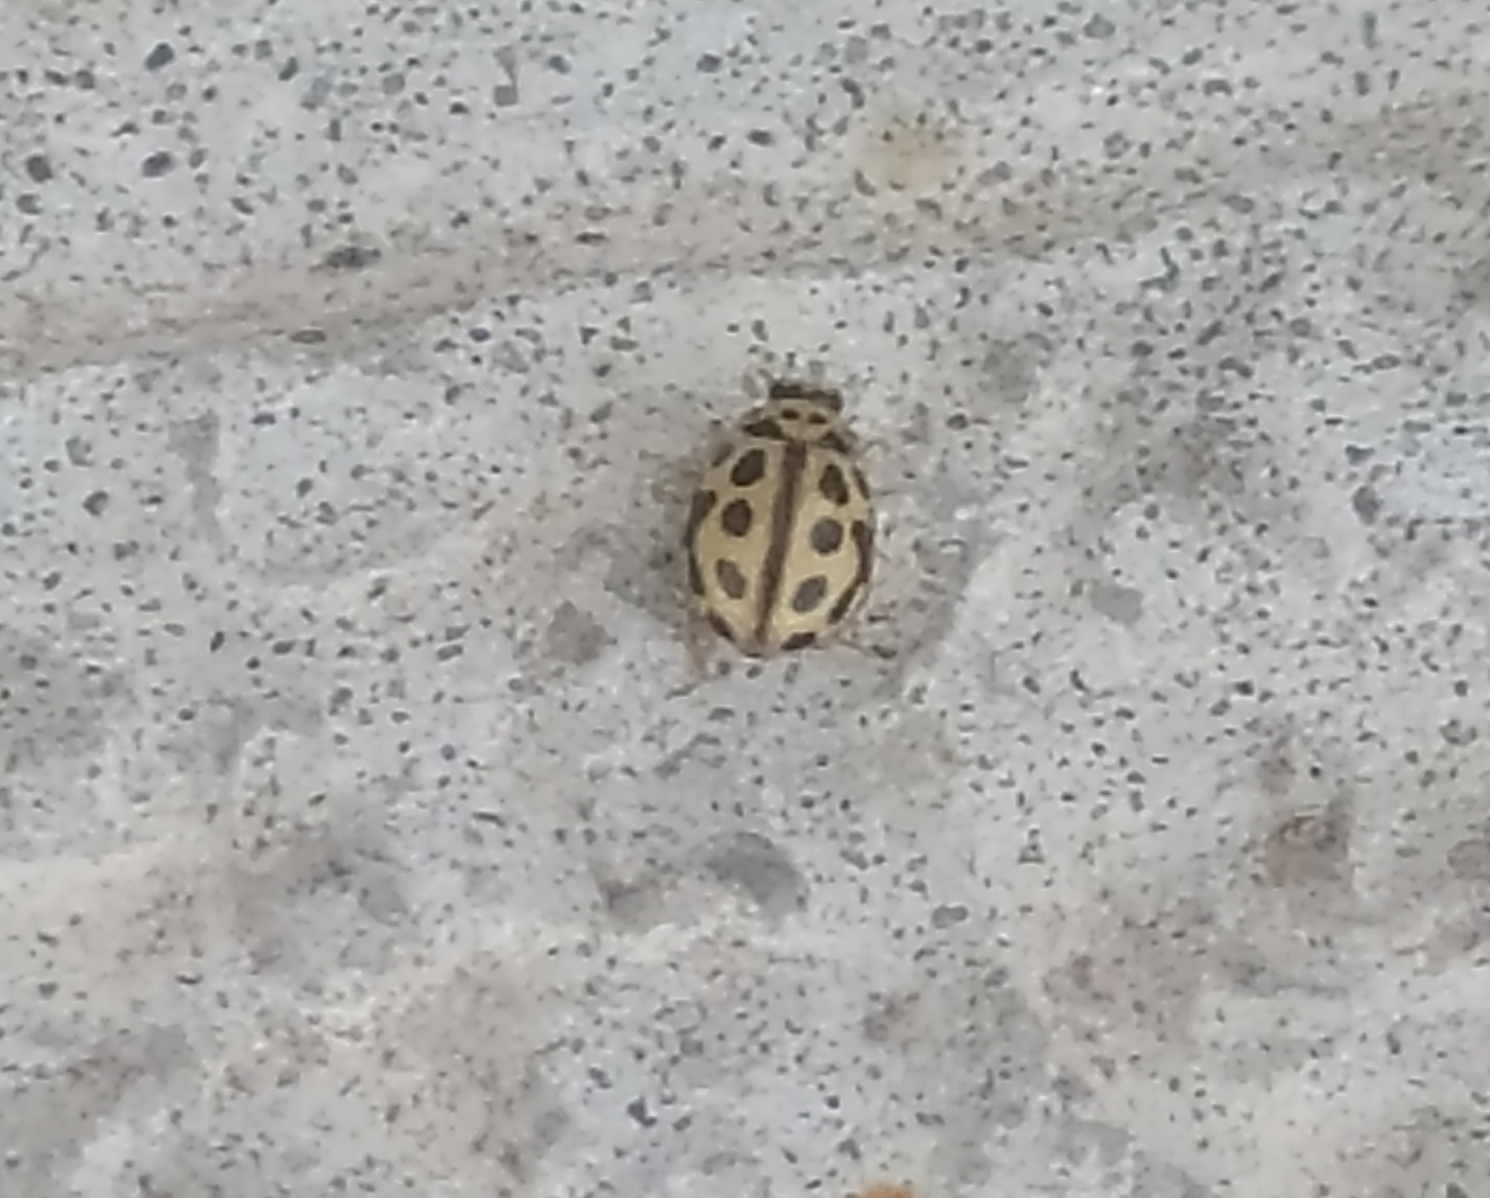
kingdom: Animalia
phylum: Arthropoda
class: Insecta
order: Coleoptera
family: Coccinellidae
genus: Tytthaspis
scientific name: Tytthaspis sedecimpunctata
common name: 16-spot ladybird
